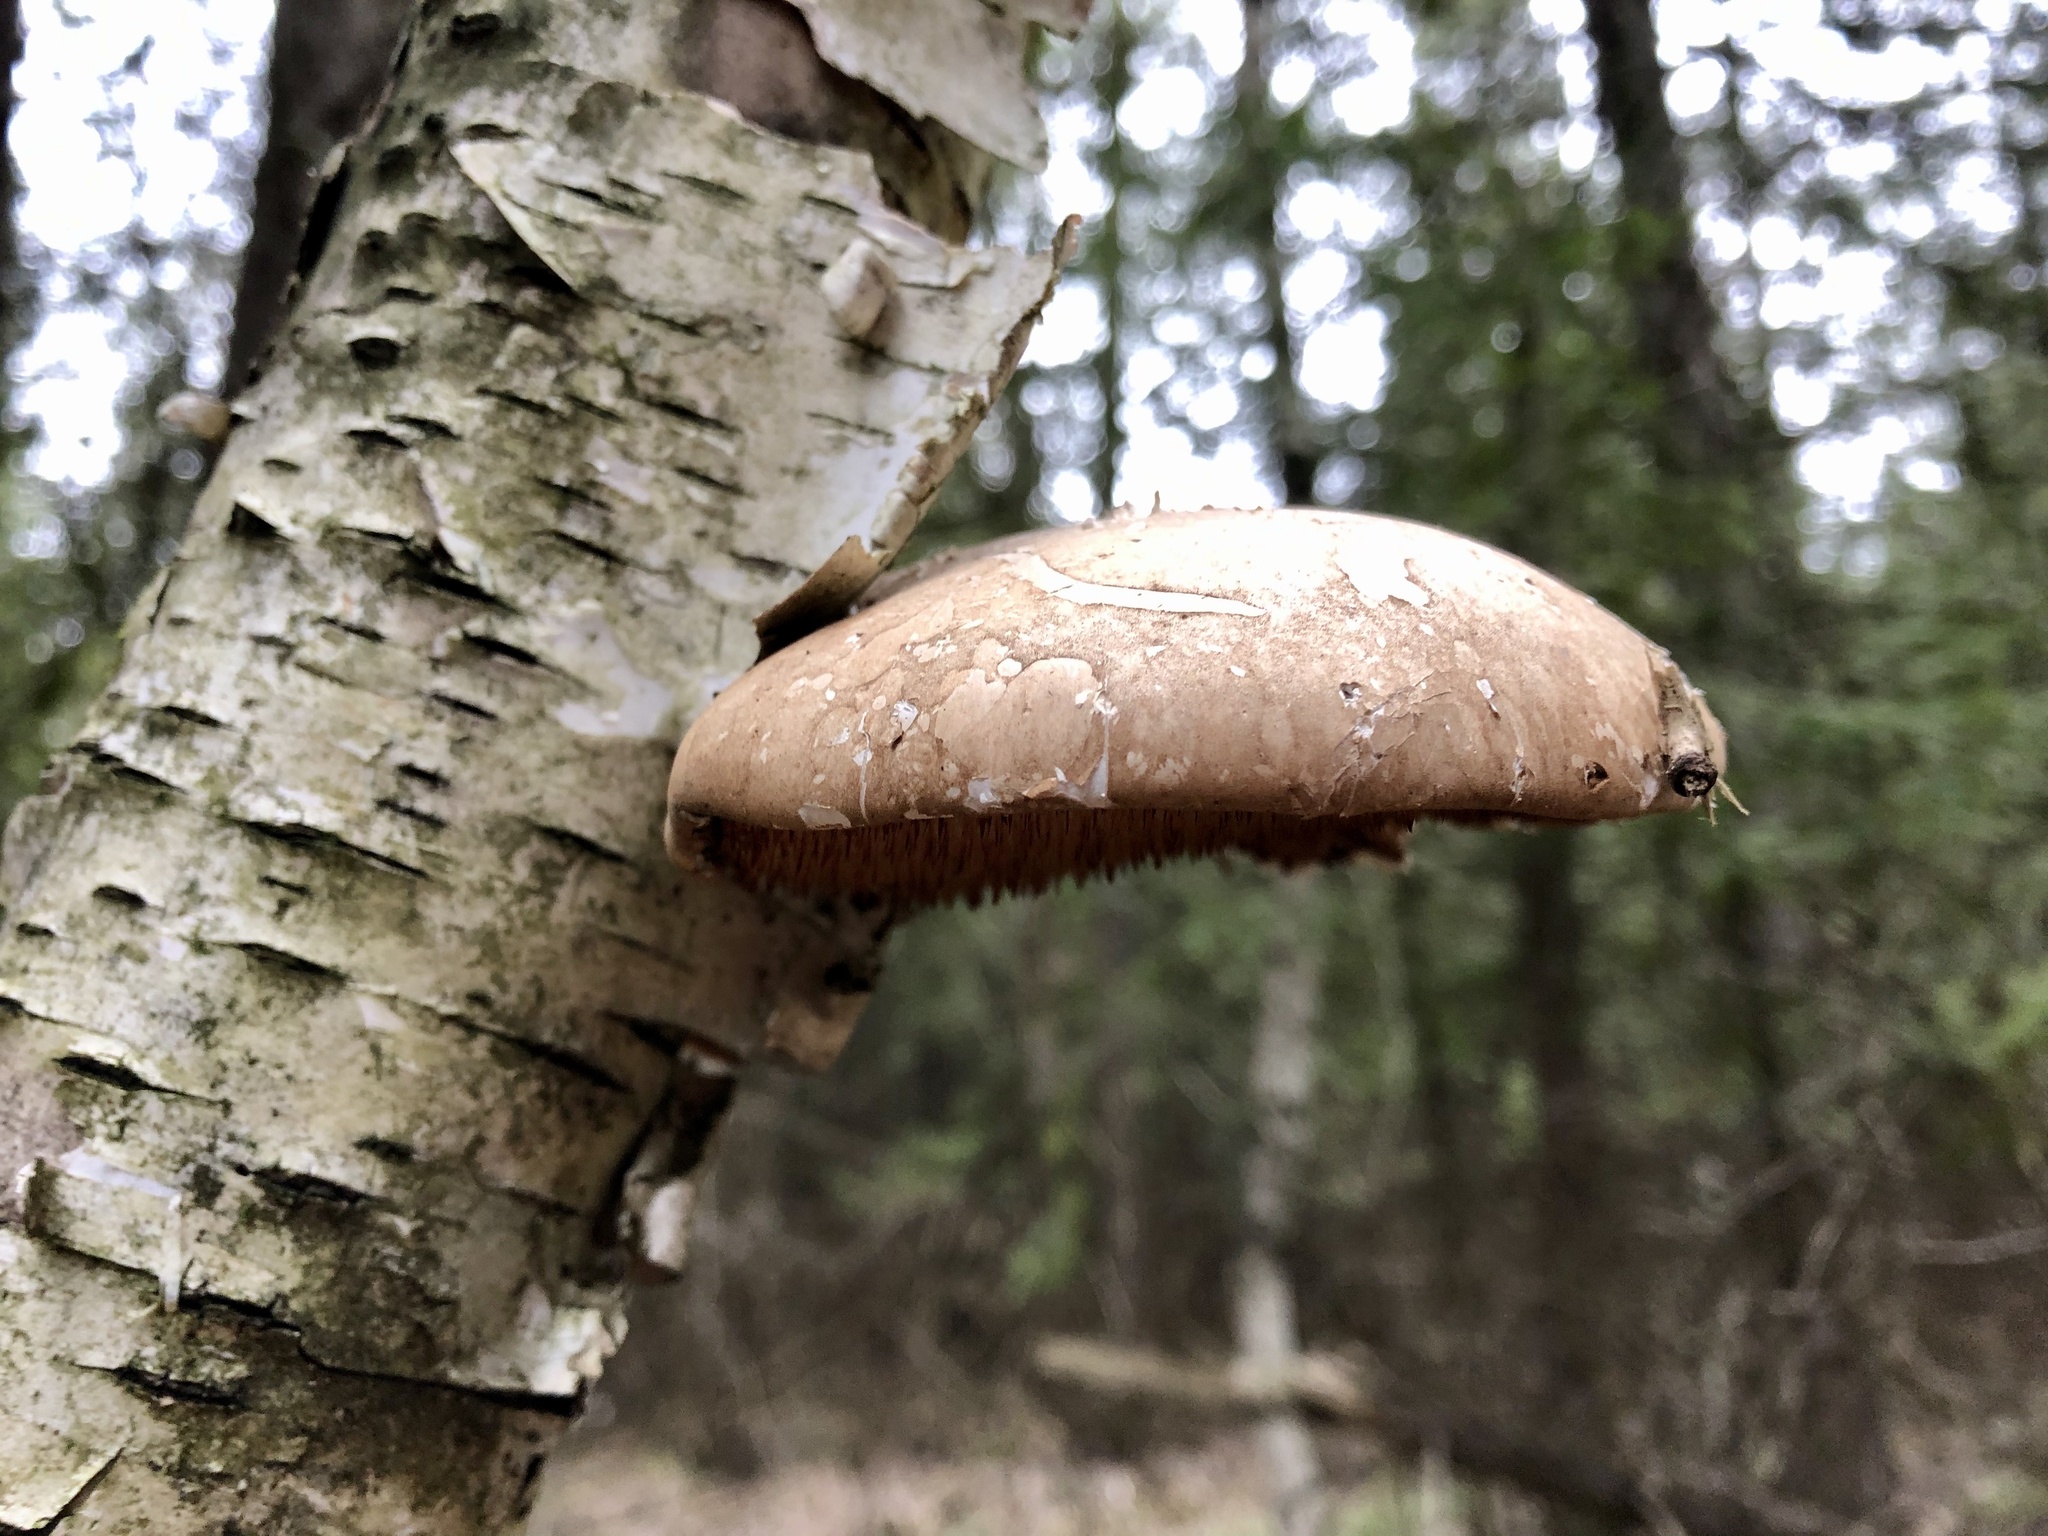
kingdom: Fungi
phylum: Basidiomycota
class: Agaricomycetes
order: Polyporales
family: Fomitopsidaceae
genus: Fomitopsis
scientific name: Fomitopsis betulina
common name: Birch polypore
